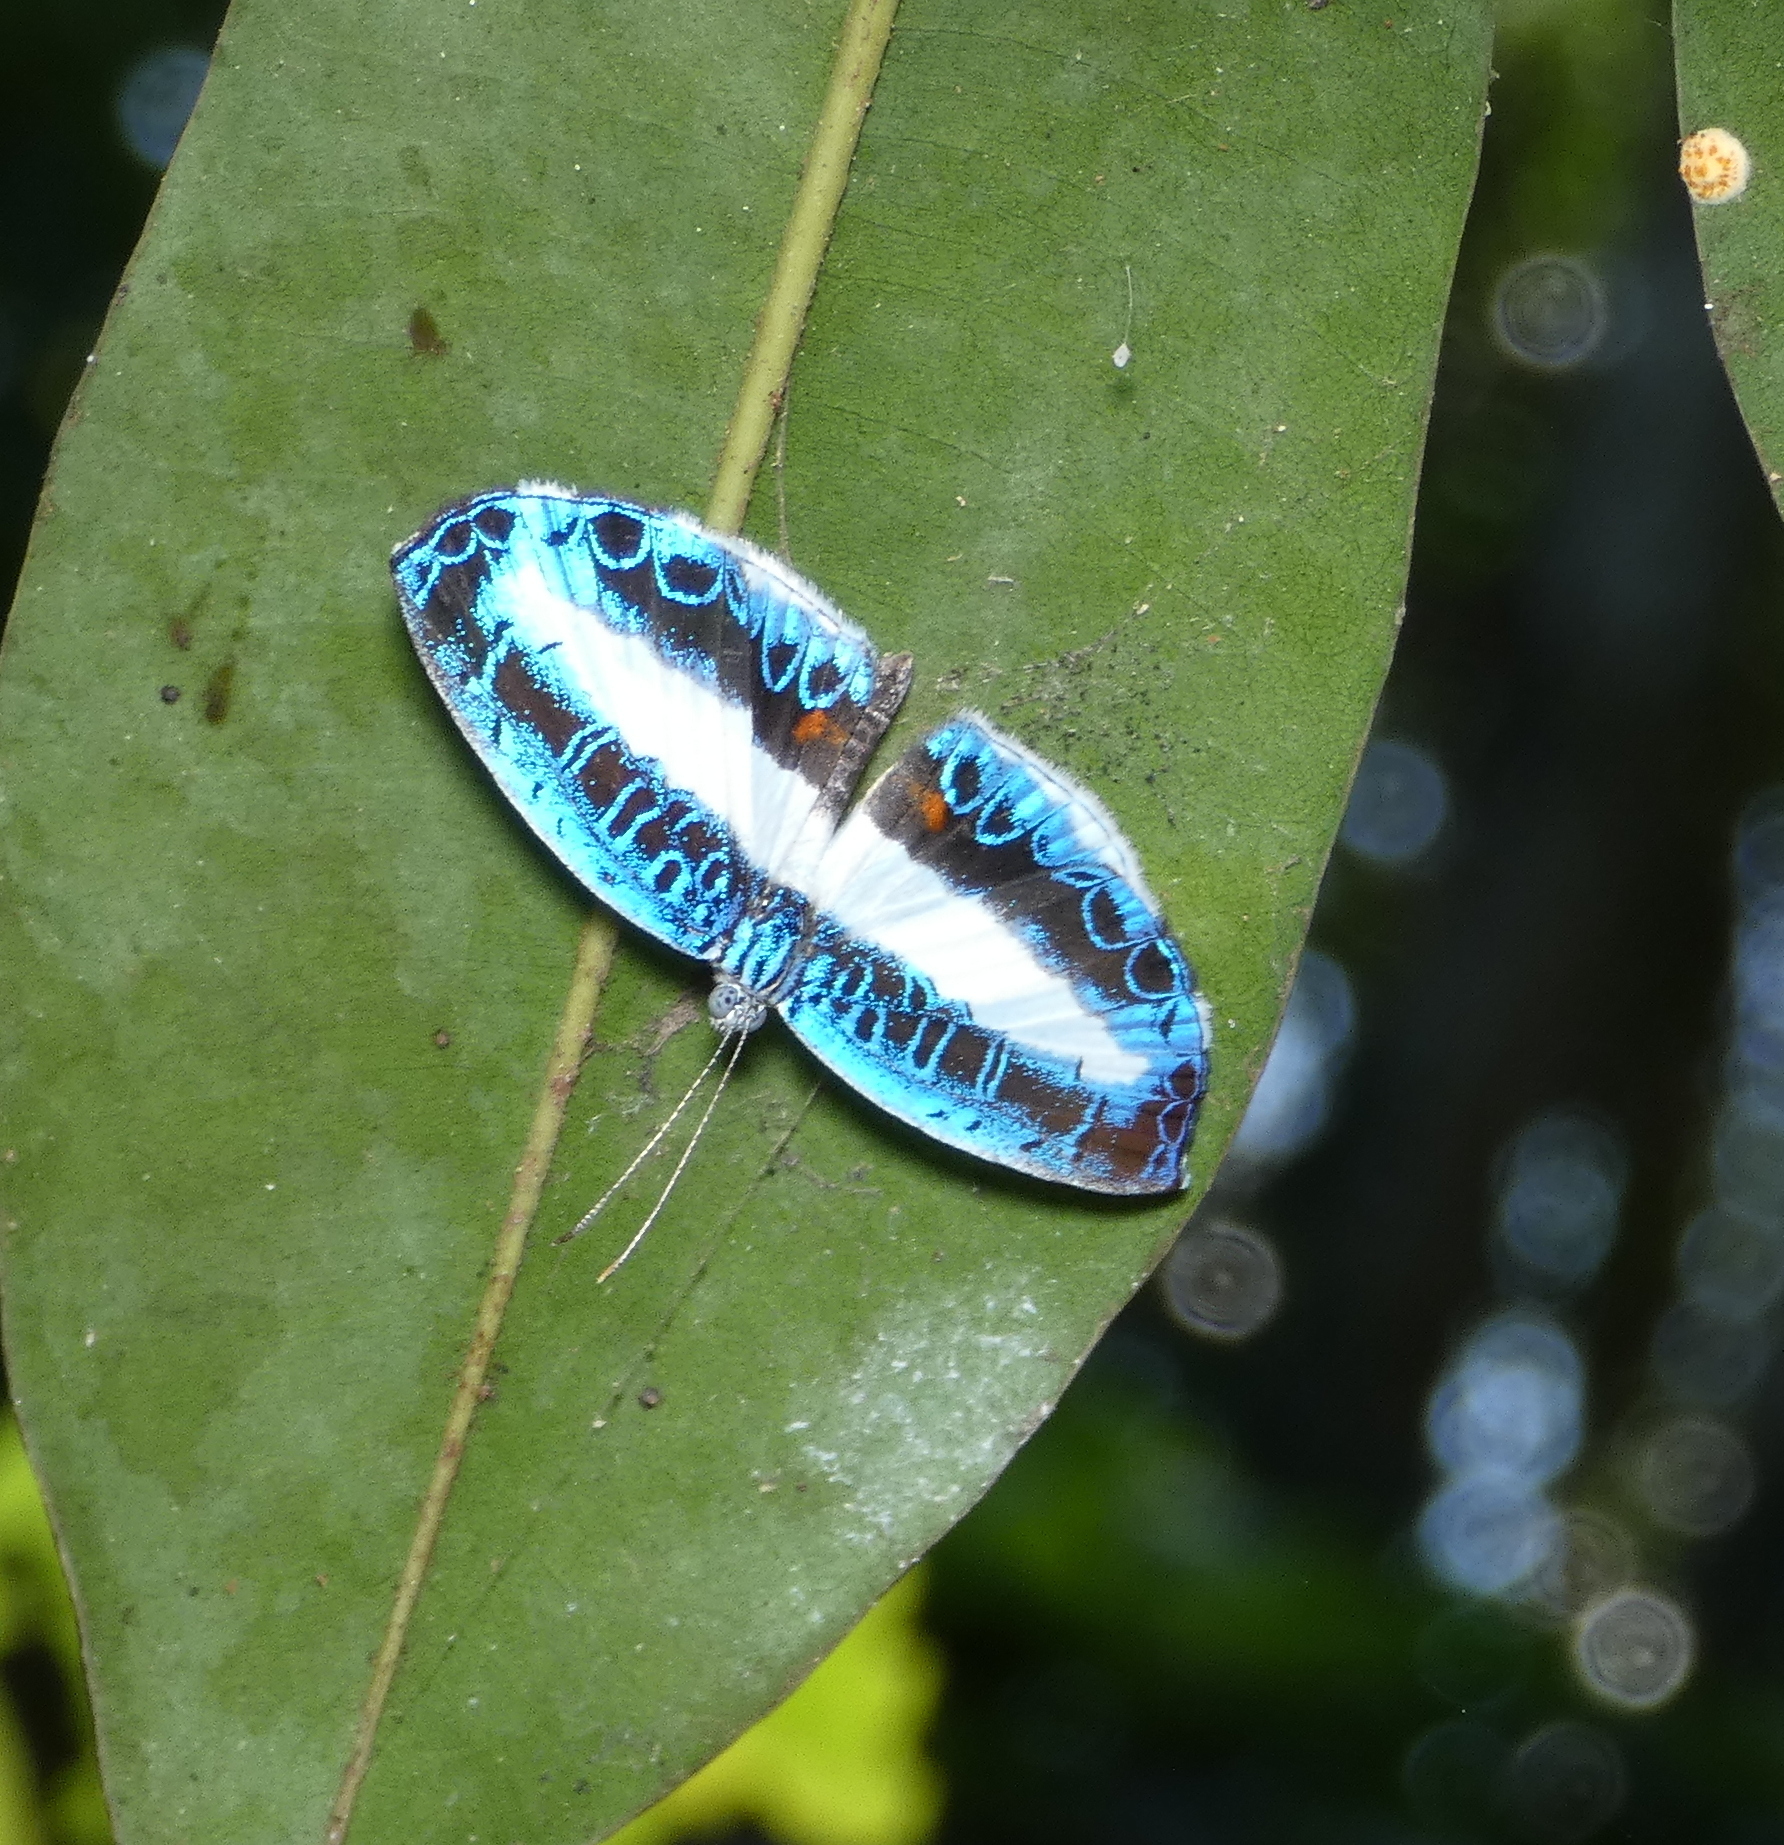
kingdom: Animalia
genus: Nymphidium
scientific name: Nymphidium mantus
